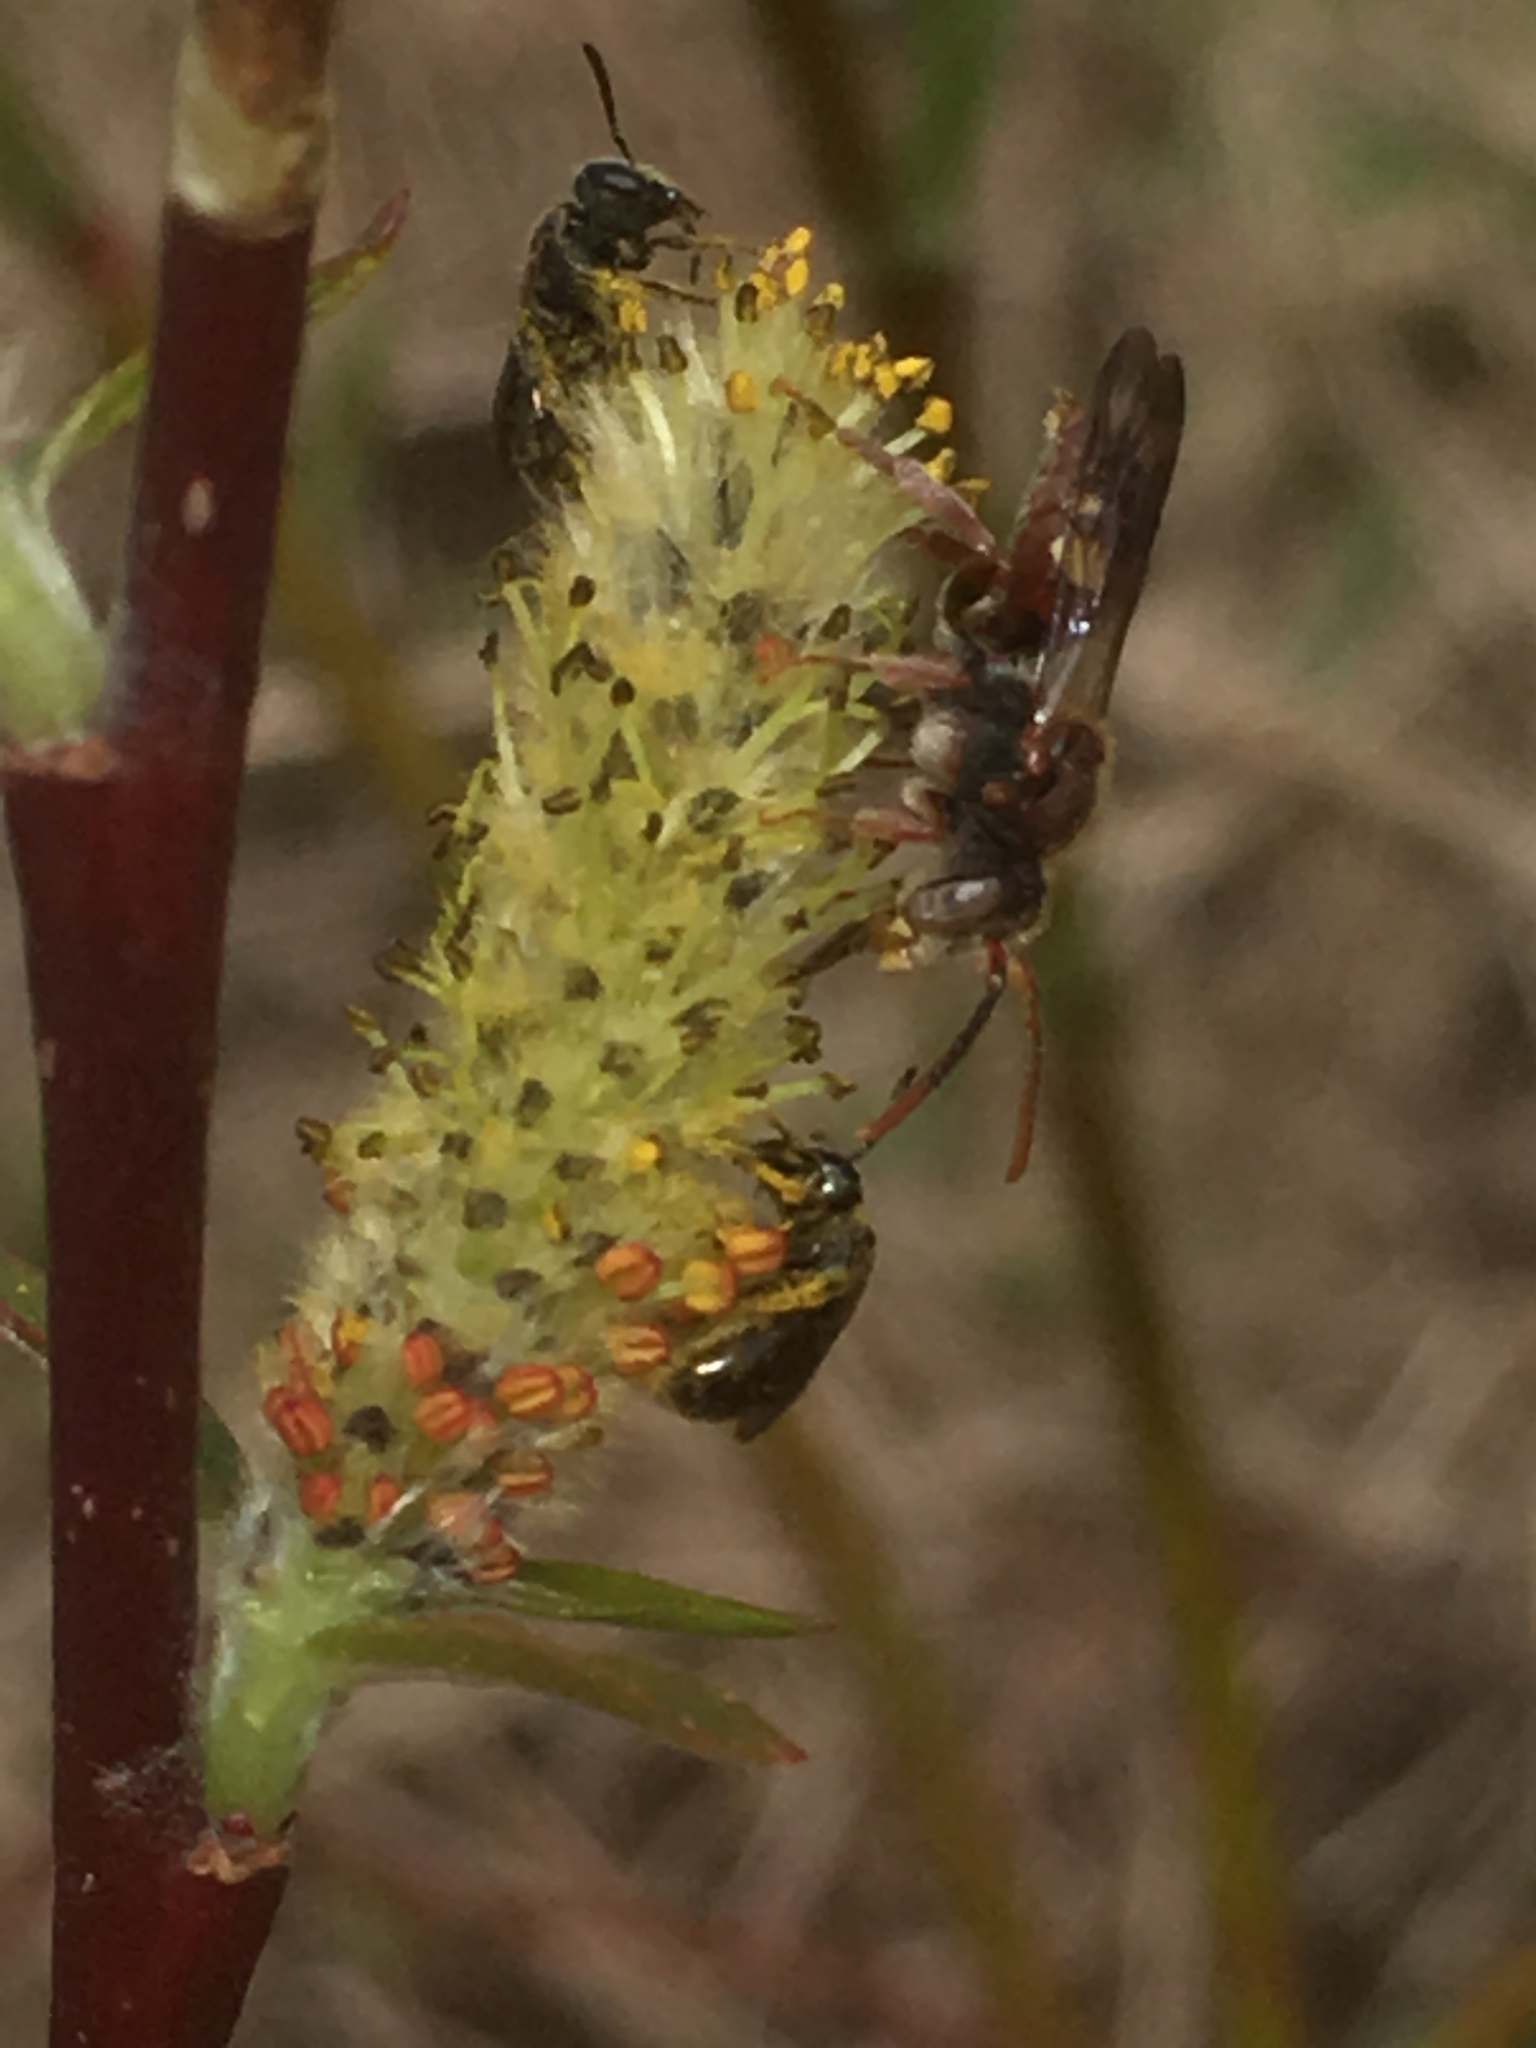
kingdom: Animalia
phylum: Arthropoda
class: Insecta
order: Hymenoptera
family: Apidae
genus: Nomada
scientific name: Nomada
